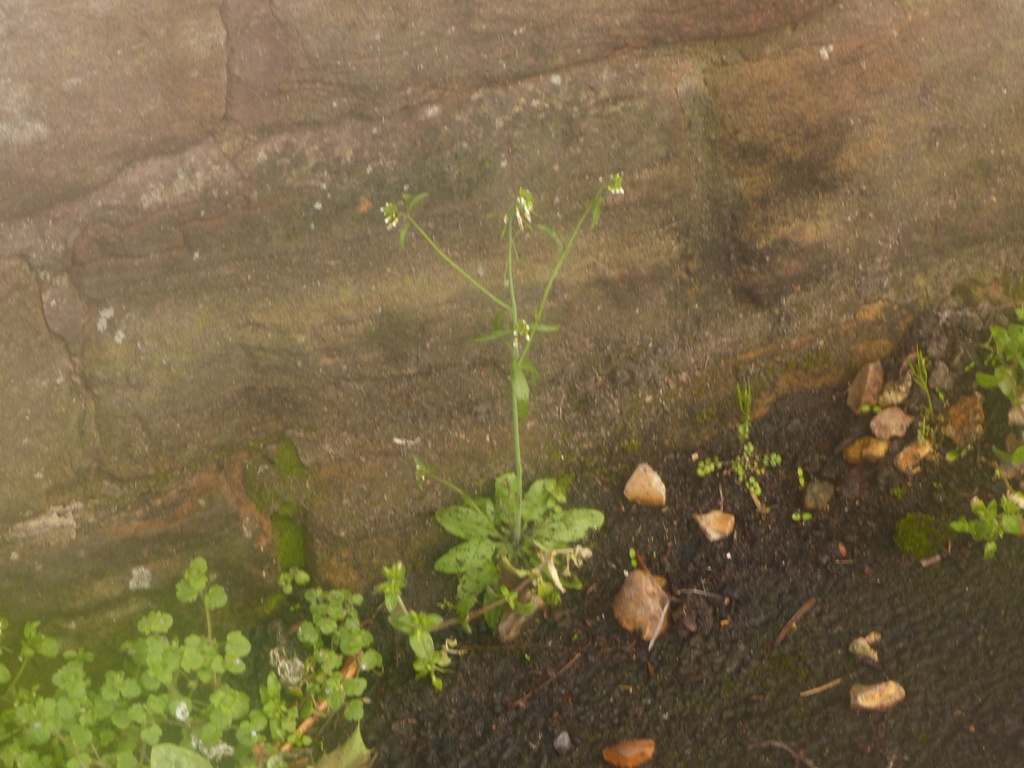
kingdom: Plantae
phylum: Tracheophyta
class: Magnoliopsida
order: Brassicales
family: Brassicaceae
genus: Arabidopsis
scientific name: Arabidopsis thaliana
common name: Thale cress
